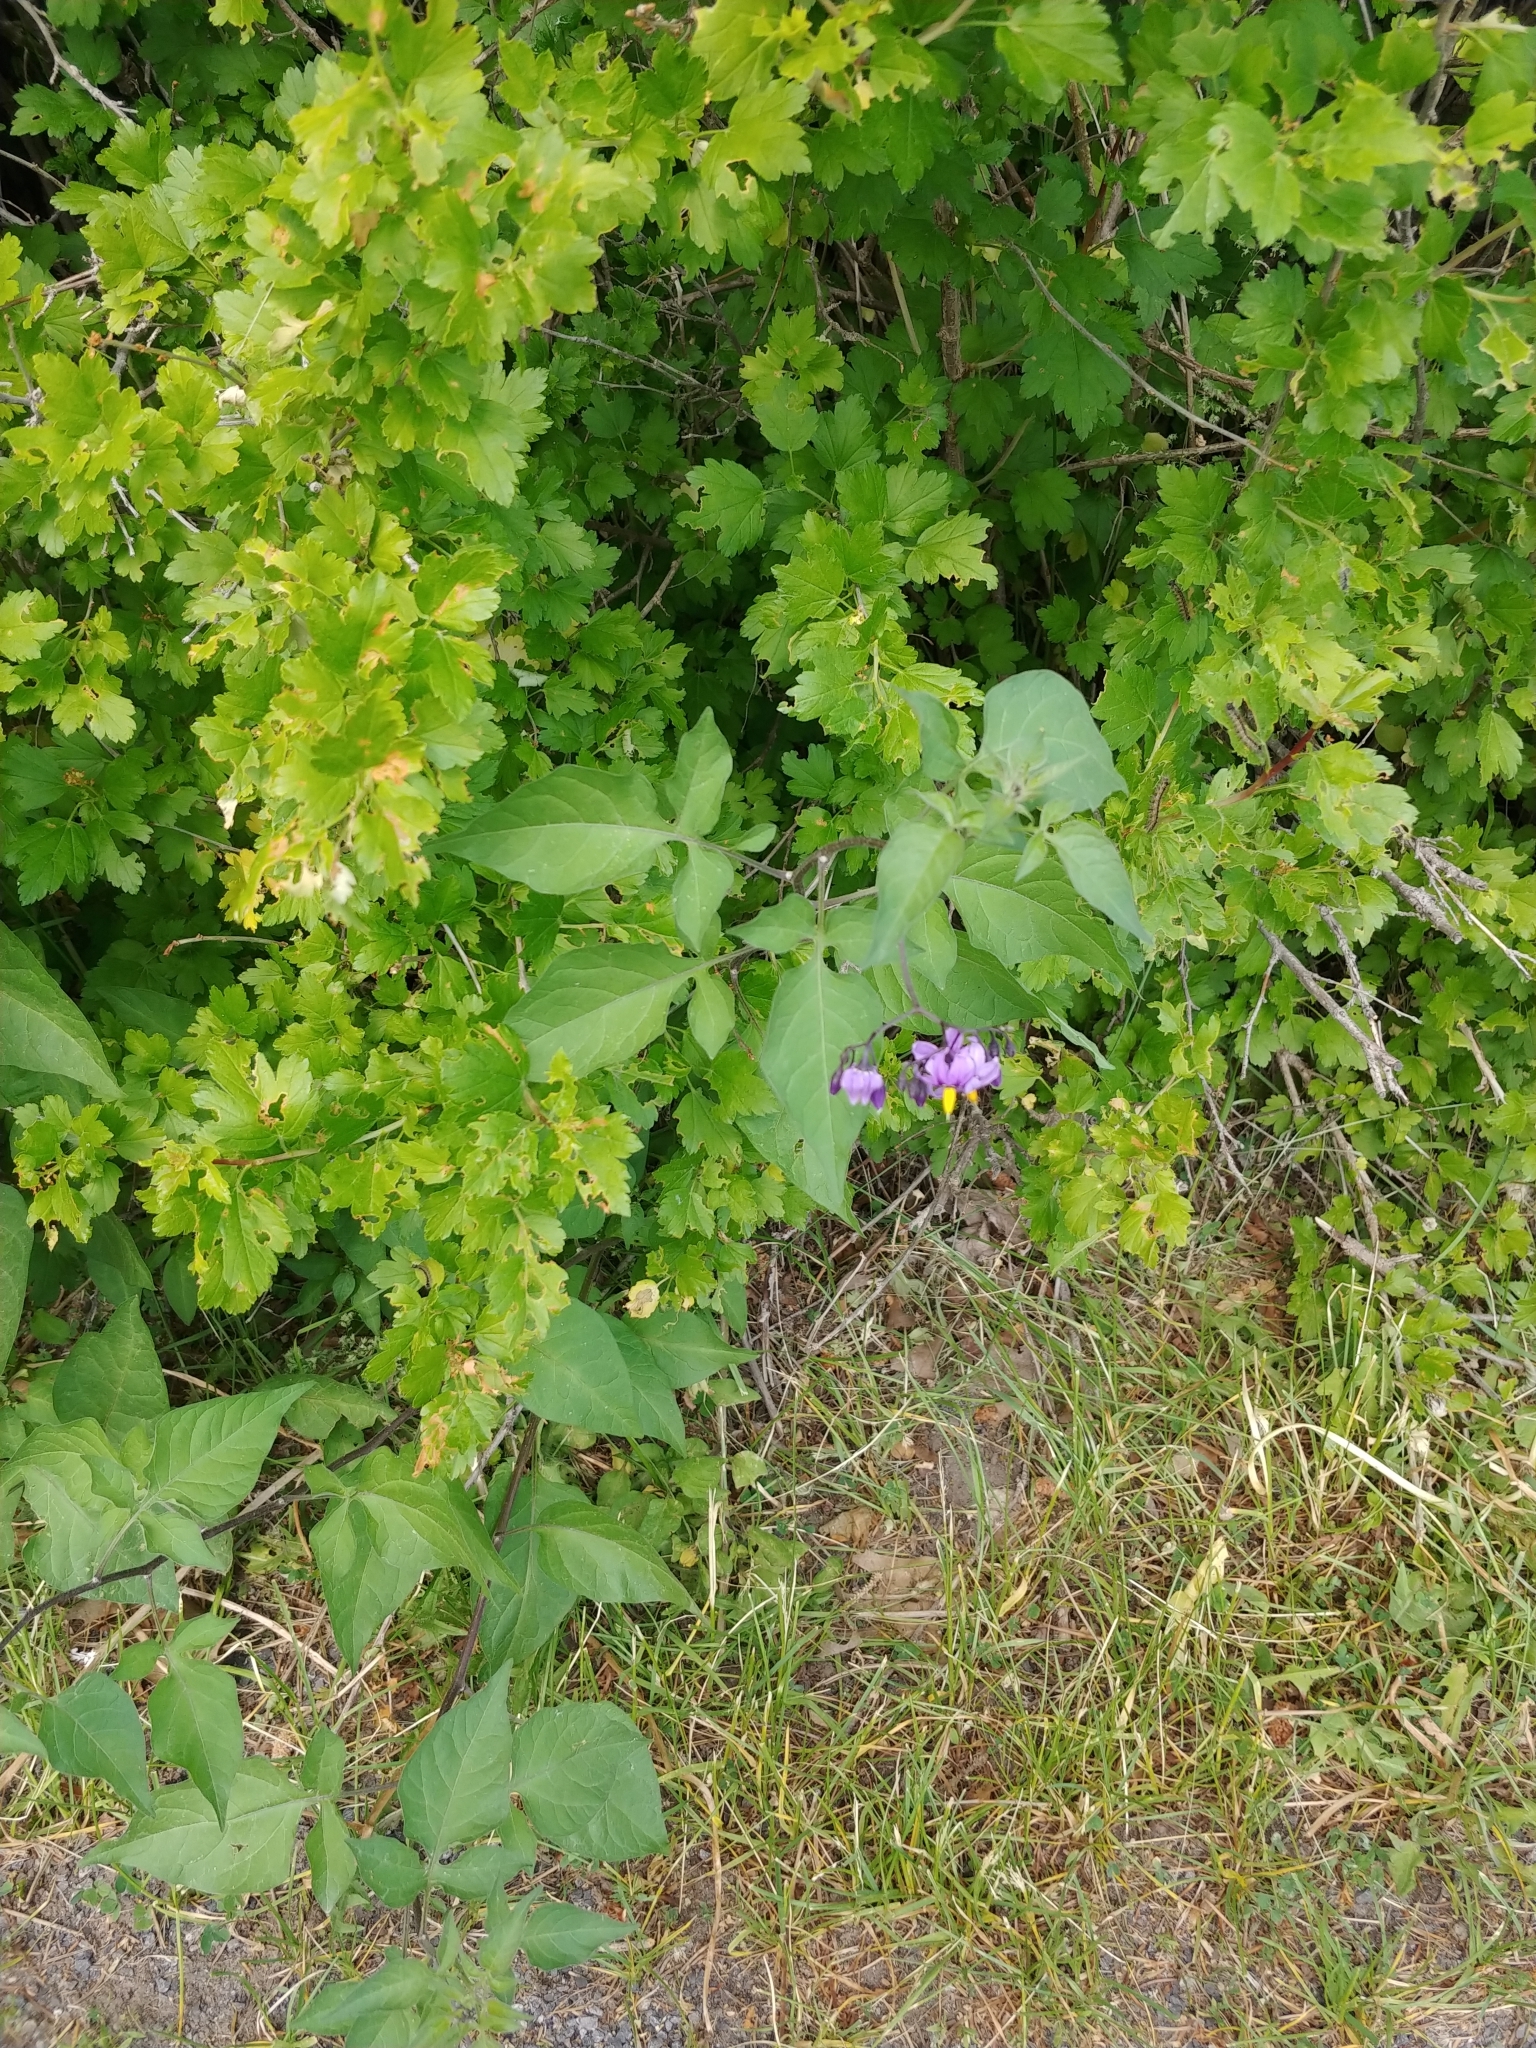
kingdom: Plantae
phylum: Tracheophyta
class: Magnoliopsida
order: Solanales
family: Solanaceae
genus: Solanum
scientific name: Solanum dulcamara
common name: Climbing nightshade
